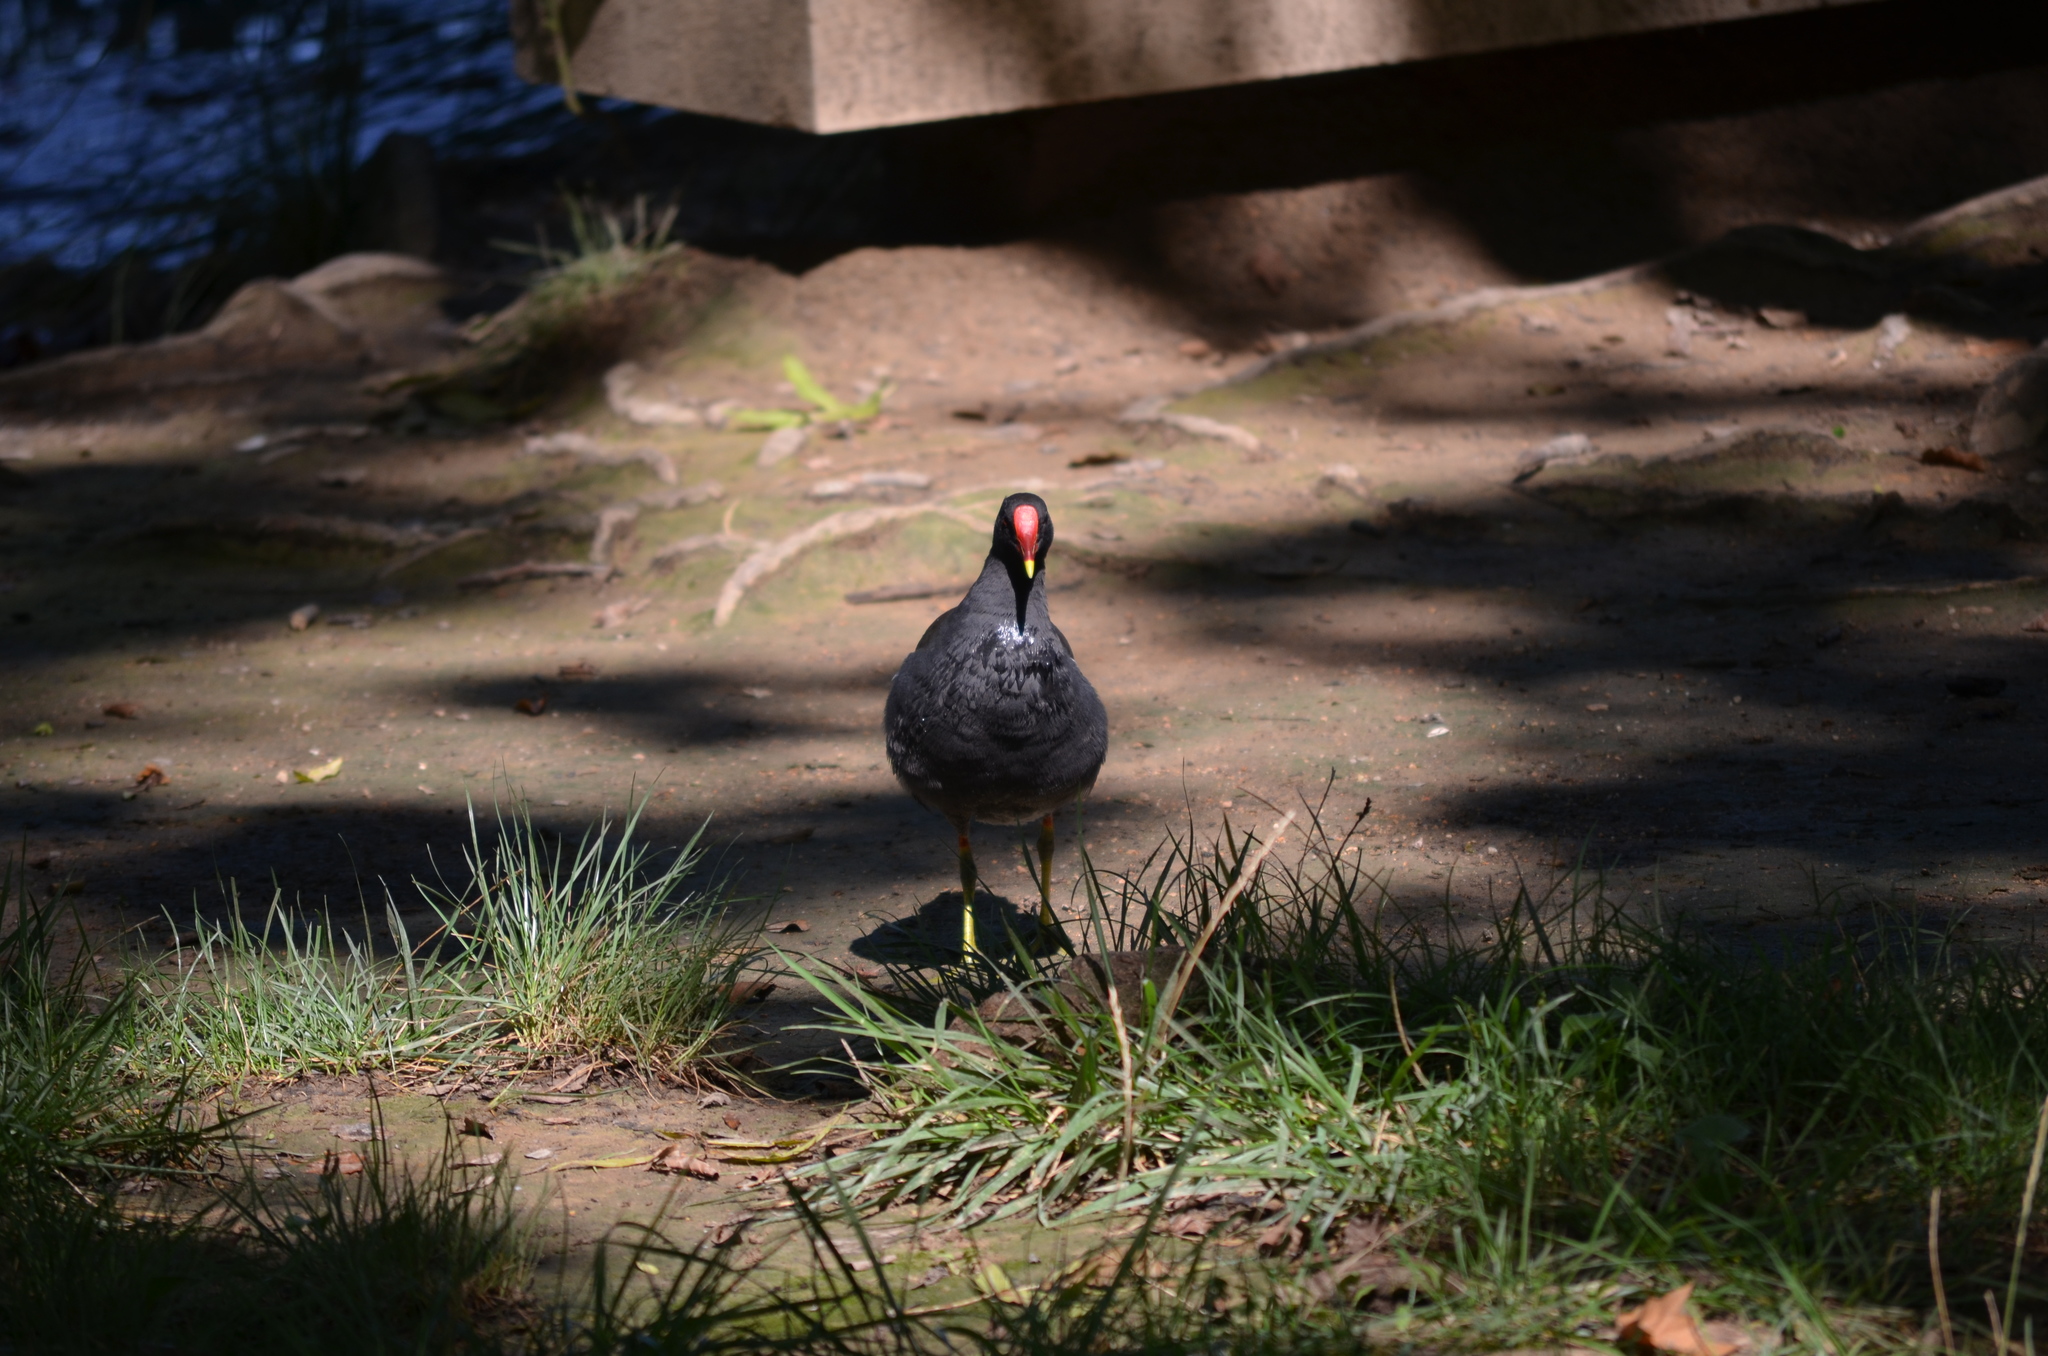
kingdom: Animalia
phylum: Chordata
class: Aves
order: Gruiformes
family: Rallidae
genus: Gallinula
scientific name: Gallinula chloropus
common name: Common moorhen
